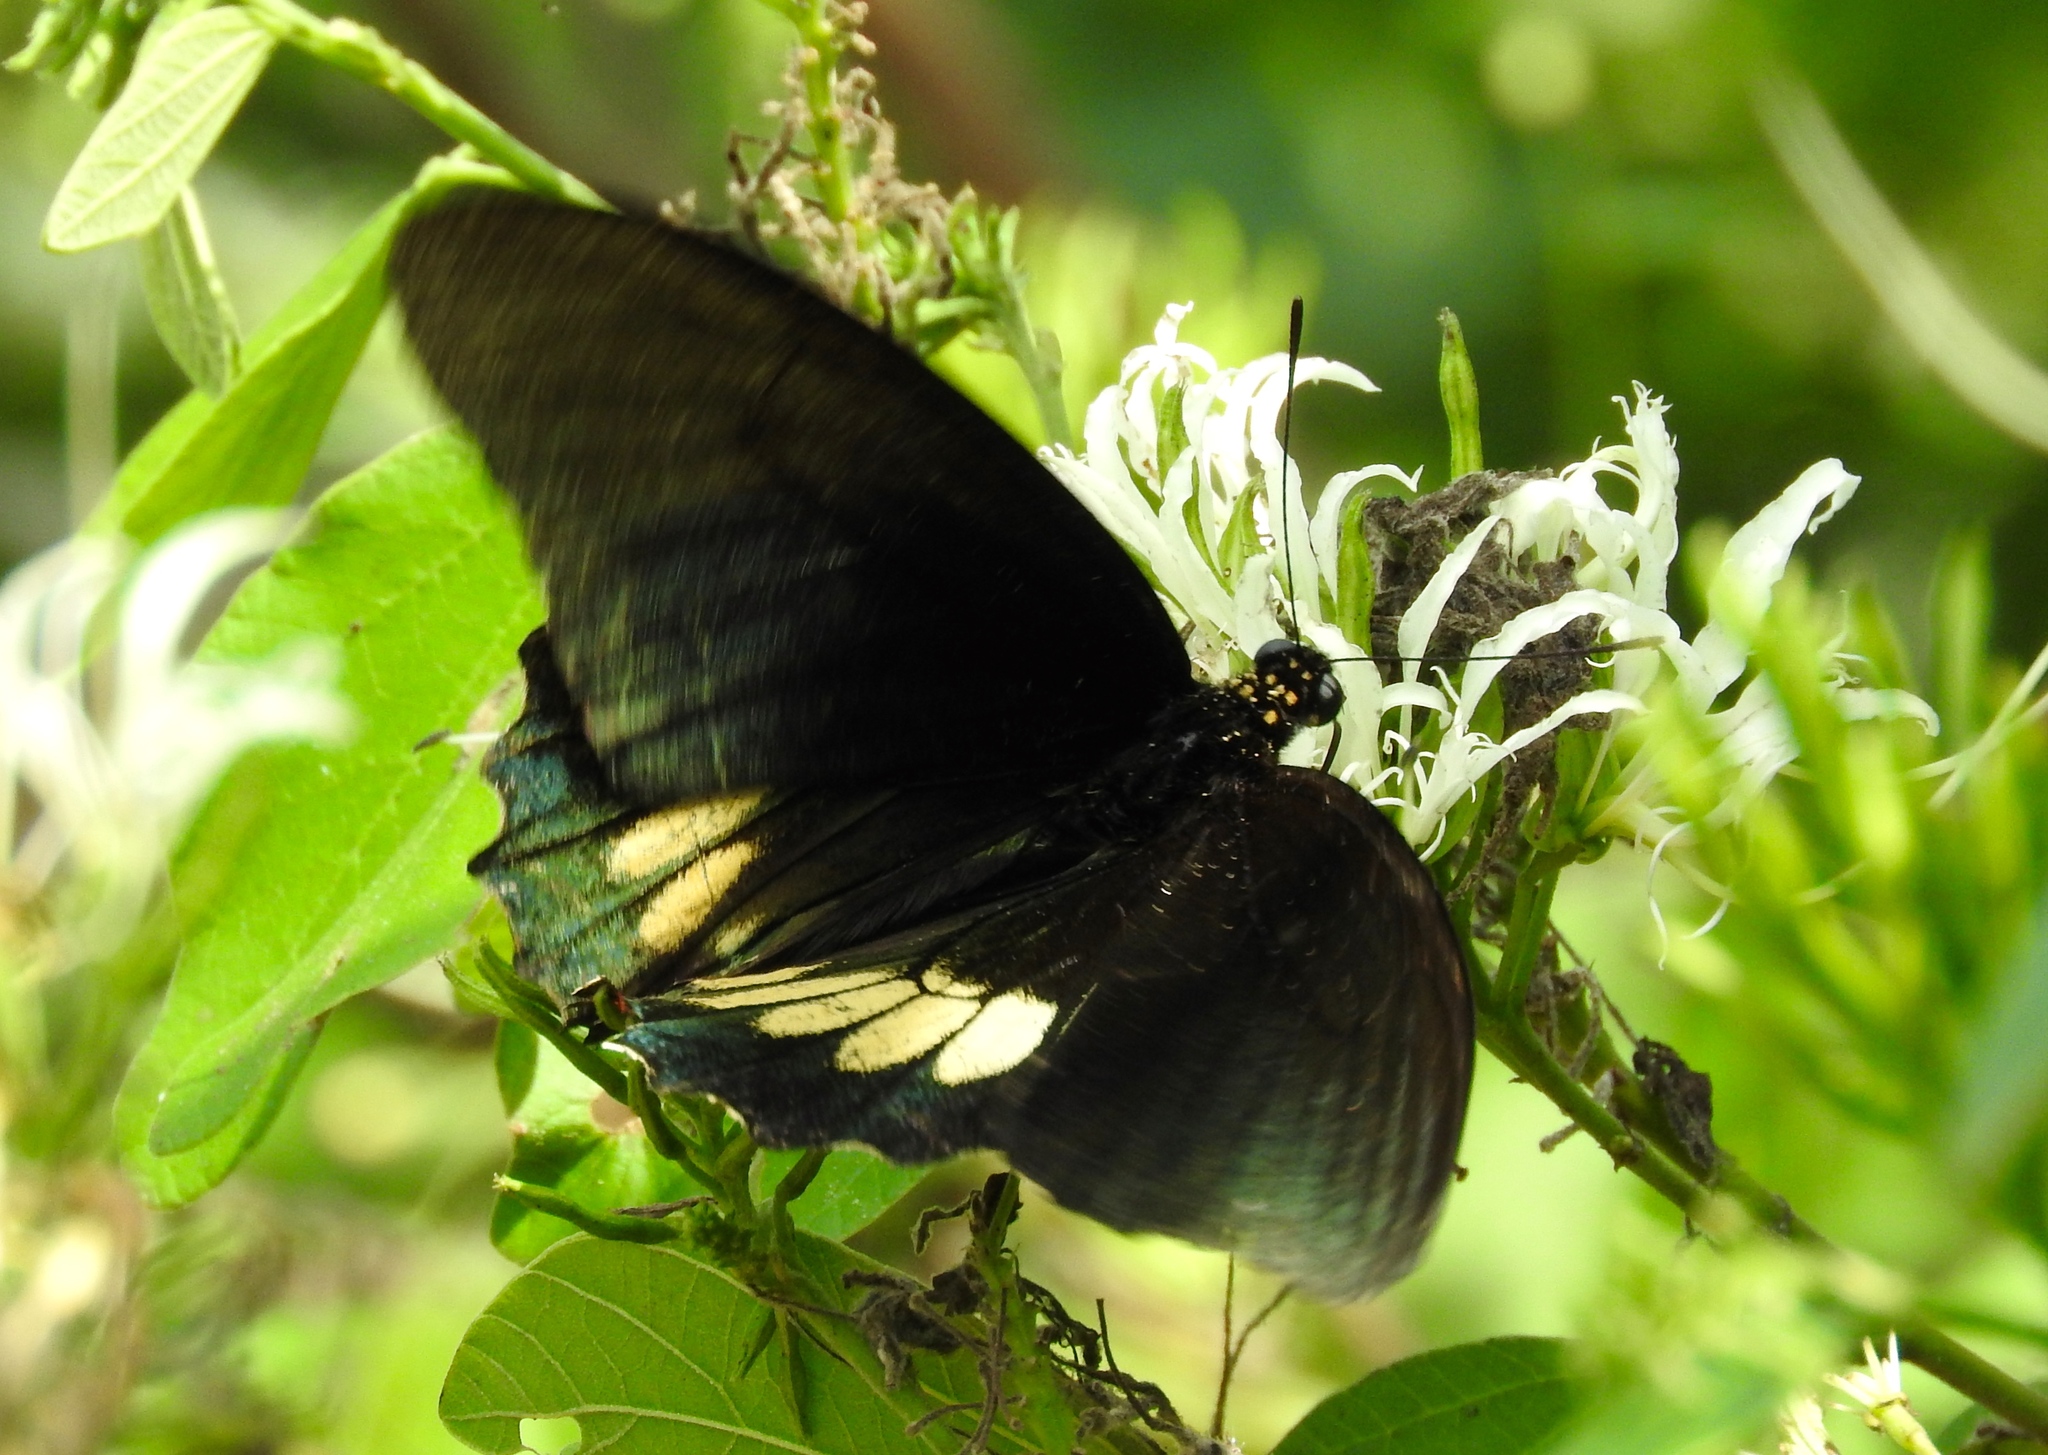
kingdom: Animalia
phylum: Arthropoda
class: Insecta
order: Lepidoptera
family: Papilionidae
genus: Battus
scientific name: Battus laodamas
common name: Green-patch swallowtail
